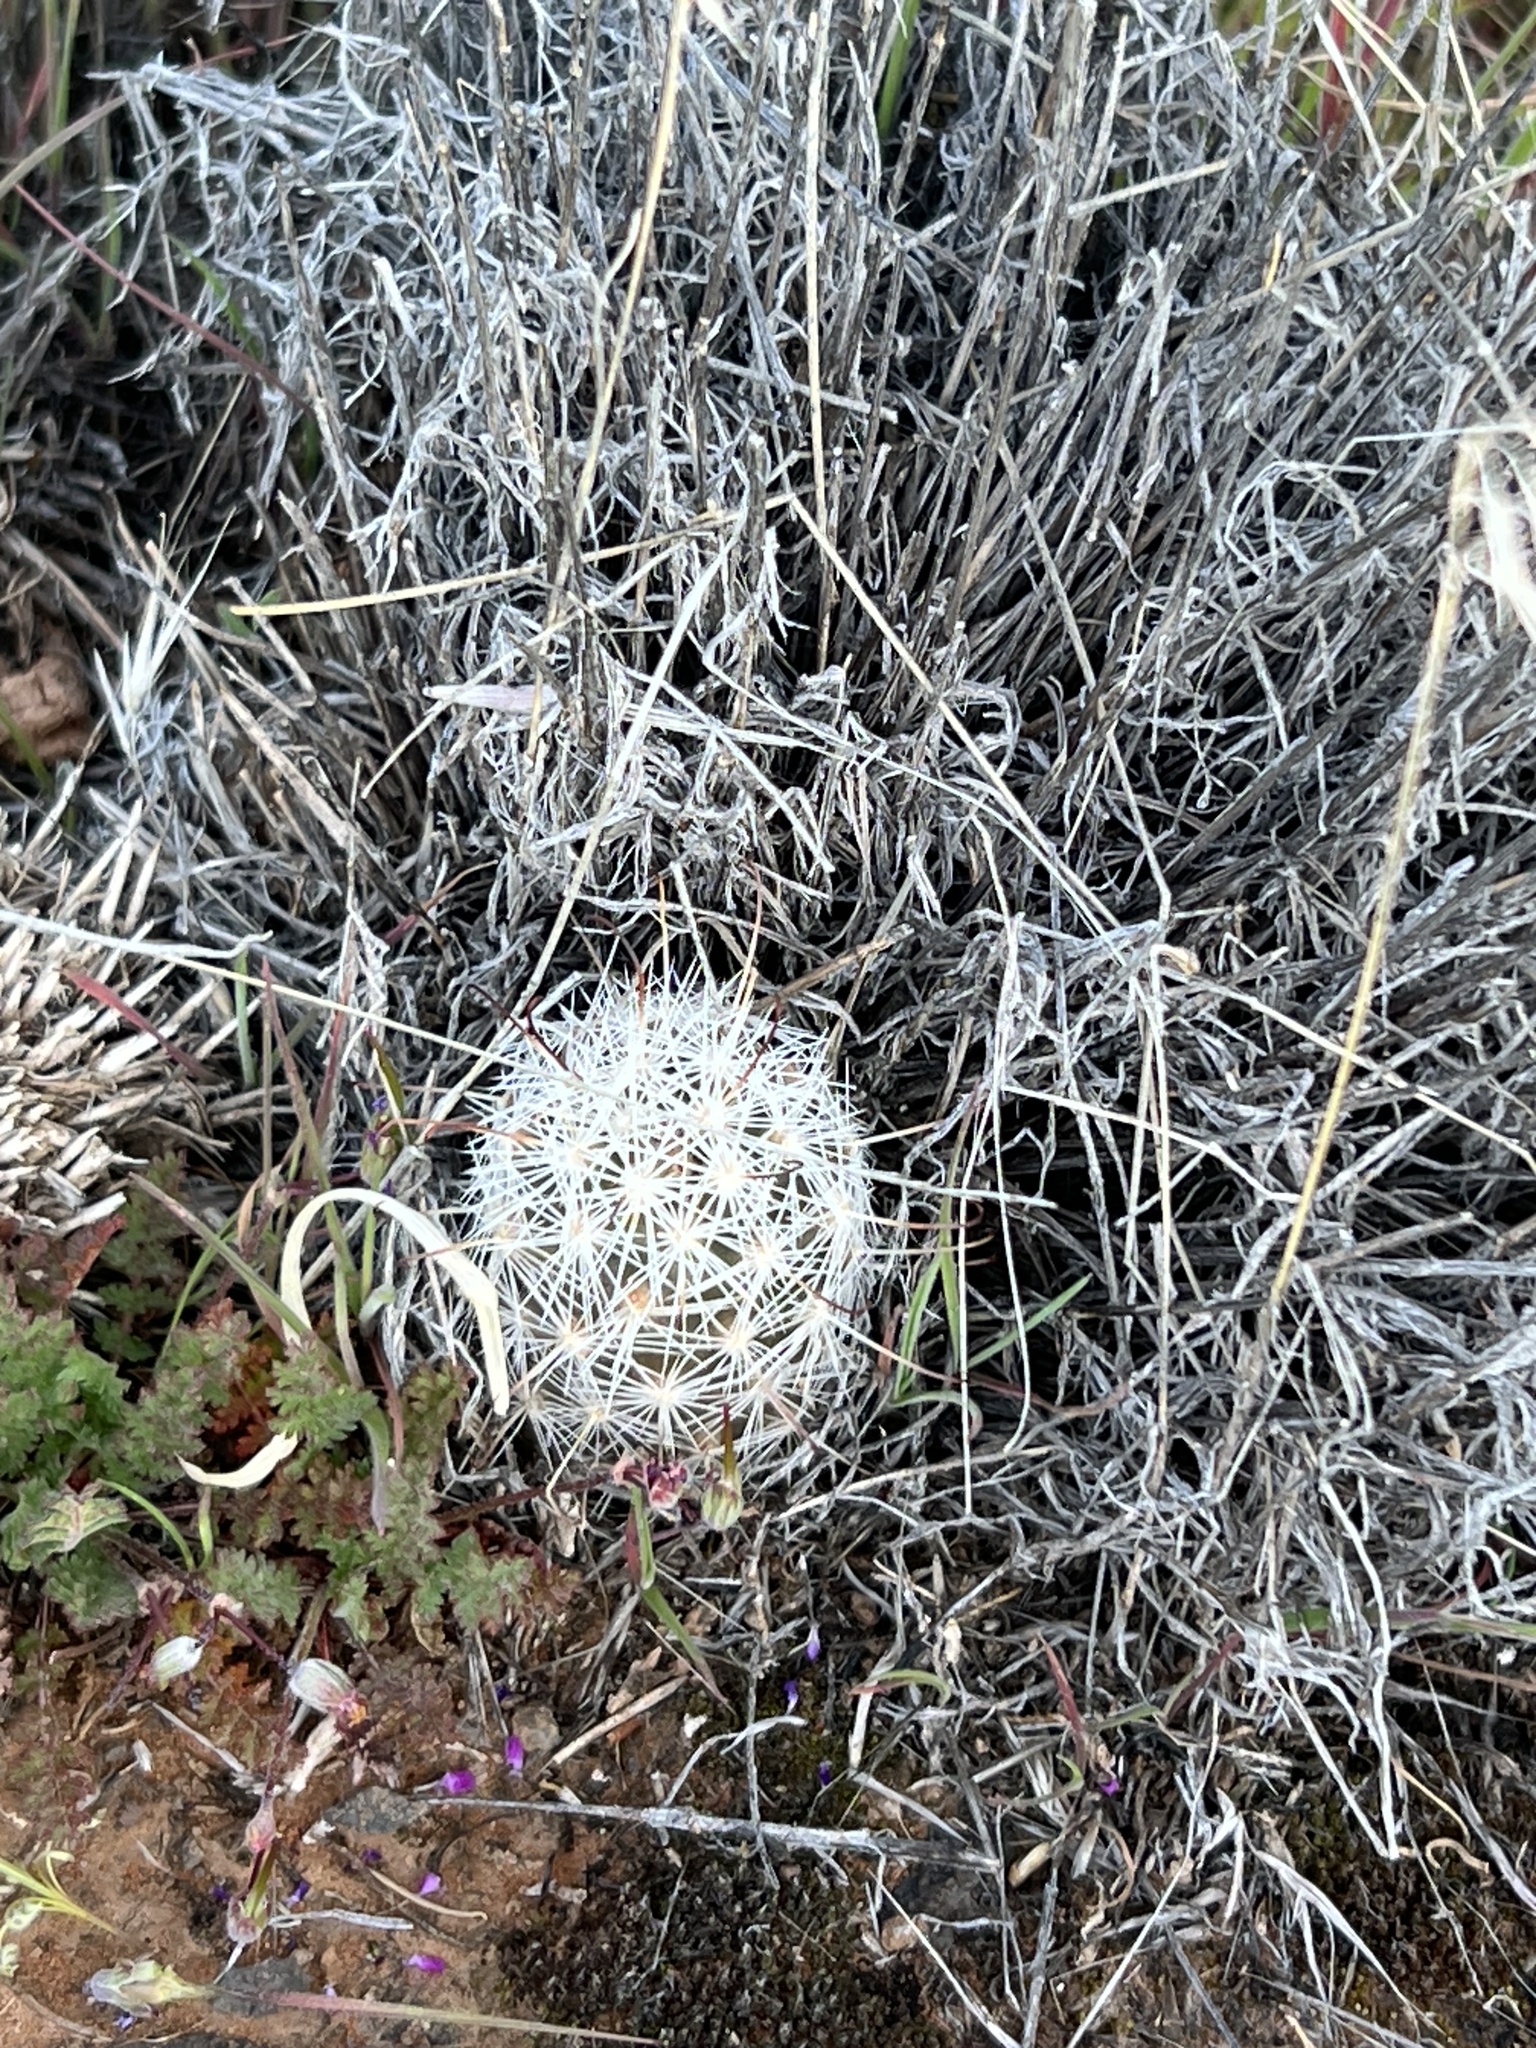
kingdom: Plantae
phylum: Tracheophyta
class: Magnoliopsida
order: Caryophyllales
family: Cactaceae
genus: Cochemiea
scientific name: Cochemiea tetrancistra
